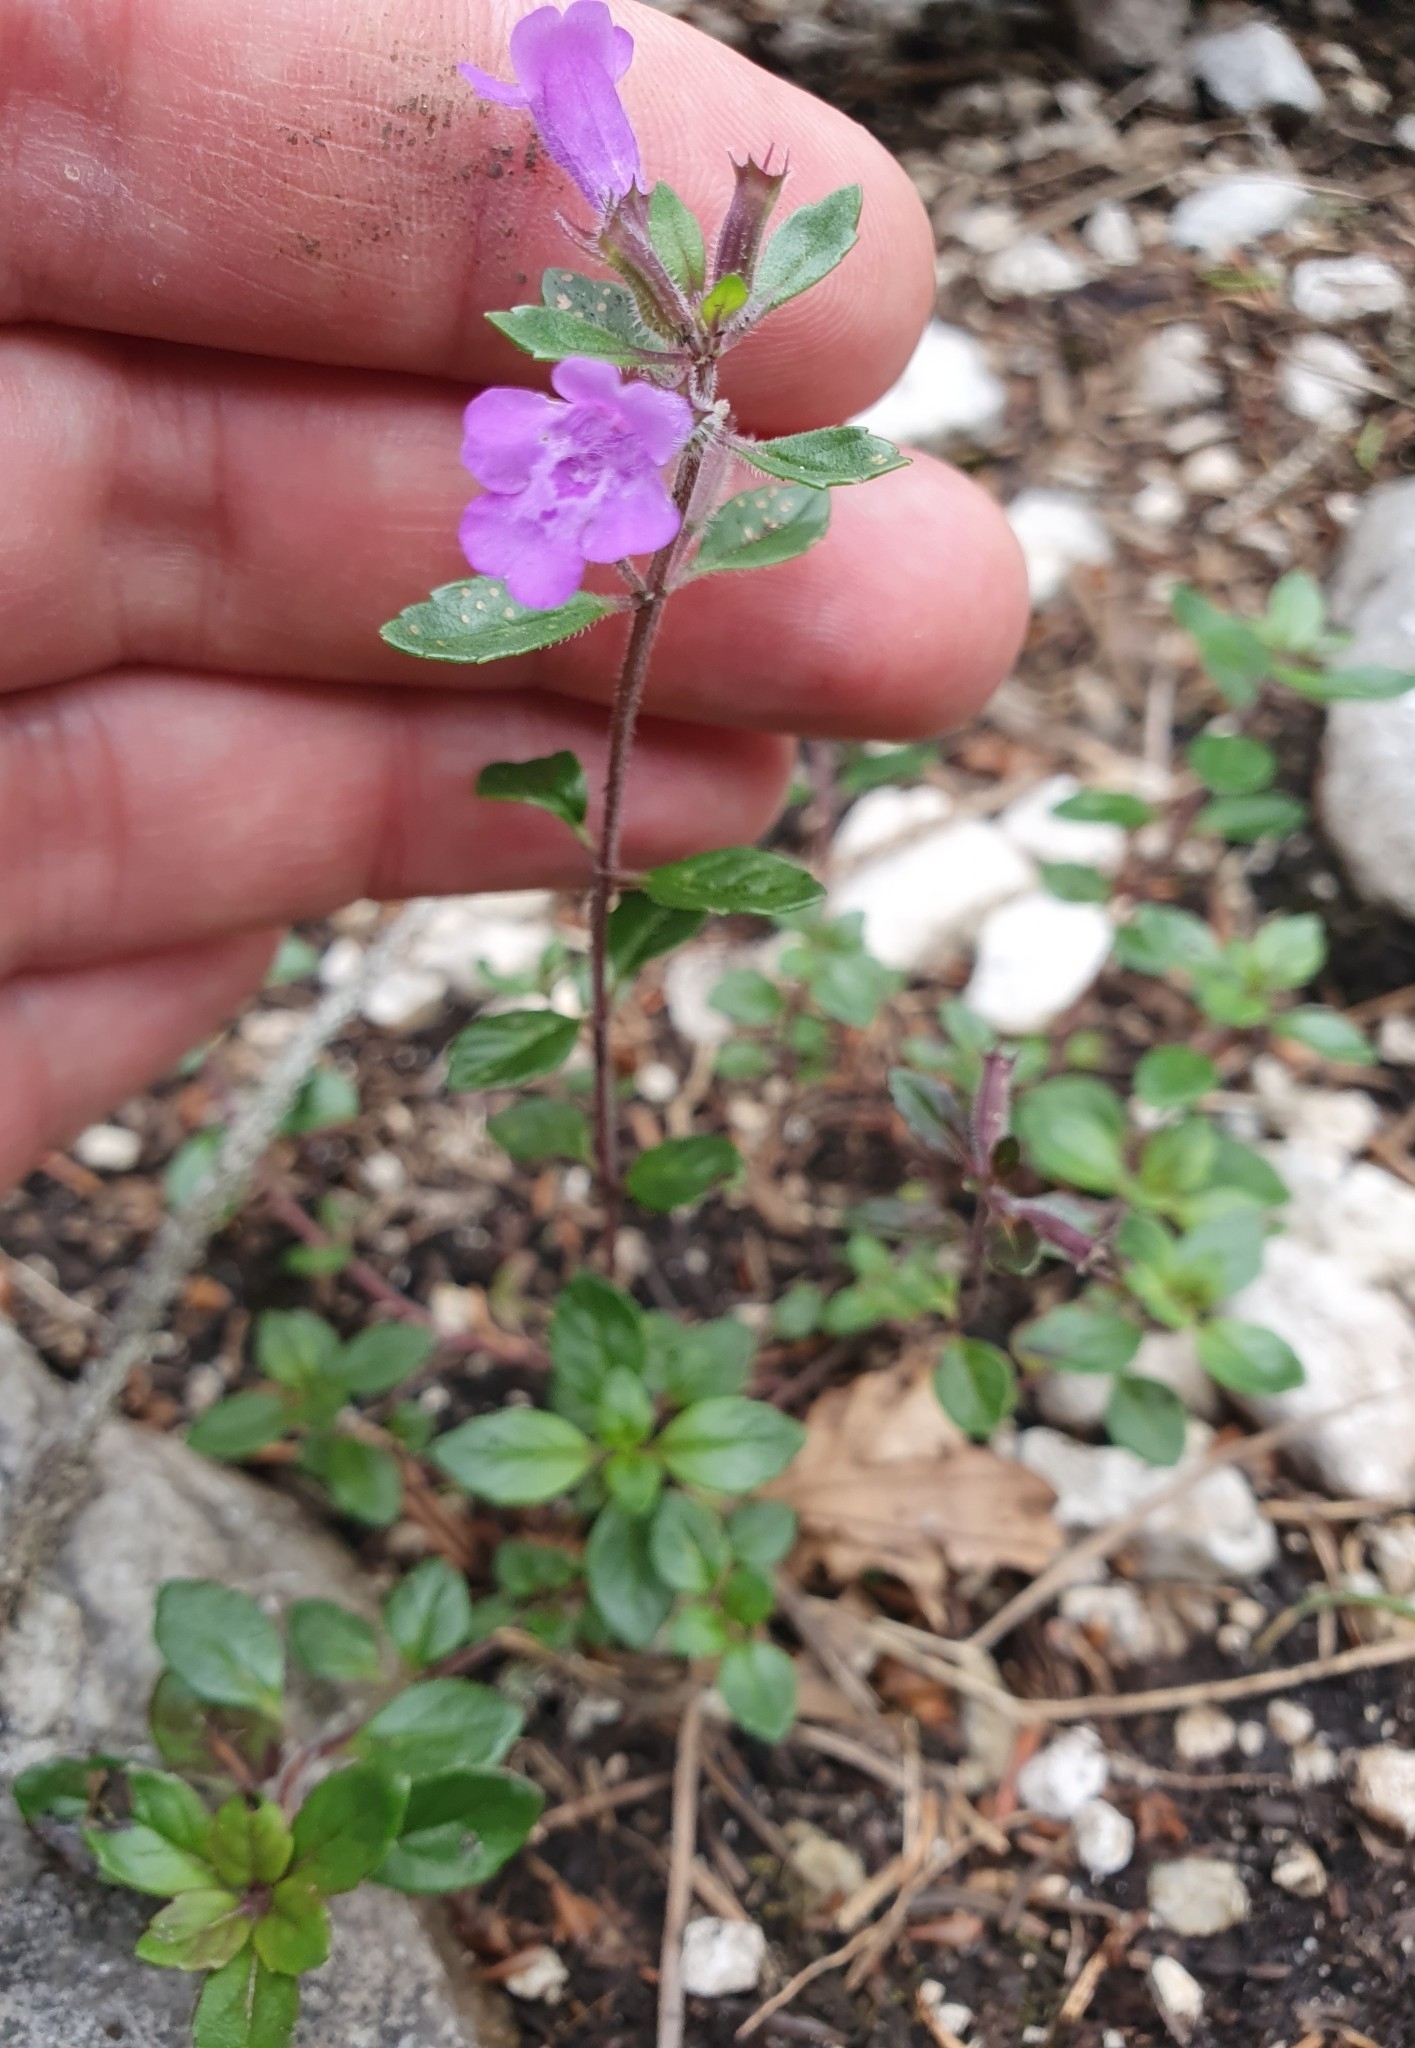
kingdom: Plantae
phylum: Tracheophyta
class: Magnoliopsida
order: Lamiales
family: Lamiaceae
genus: Clinopodium
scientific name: Clinopodium alpinum
